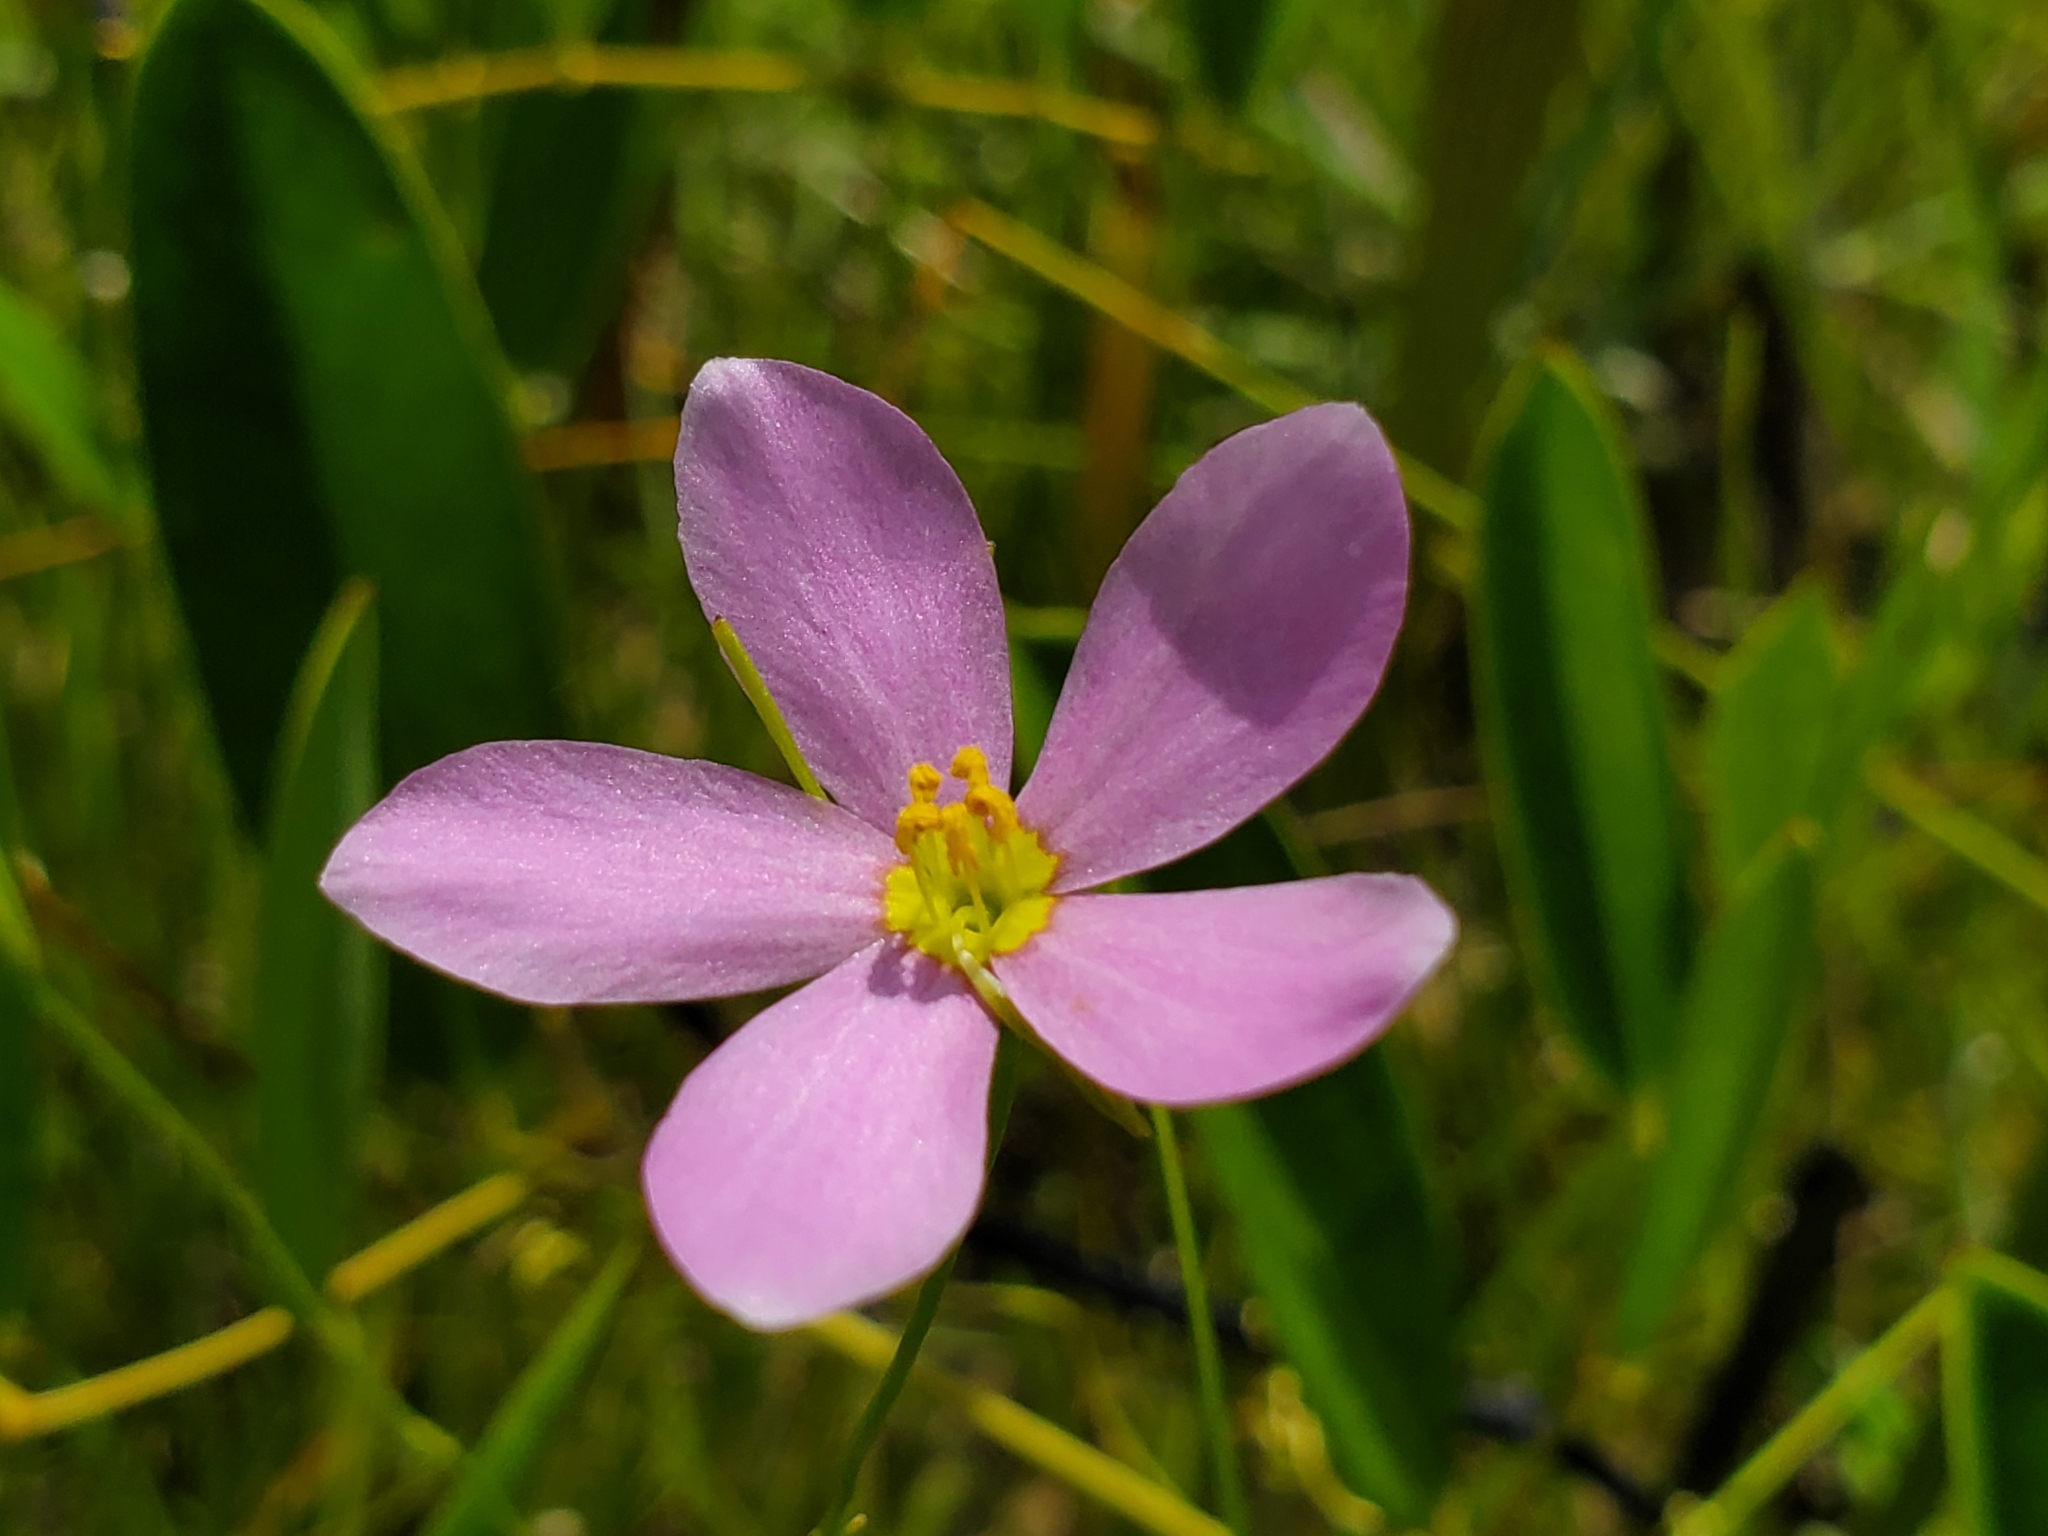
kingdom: Plantae
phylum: Tracheophyta
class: Magnoliopsida
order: Gentianales
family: Gentianaceae
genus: Sabatia
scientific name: Sabatia campanulata
